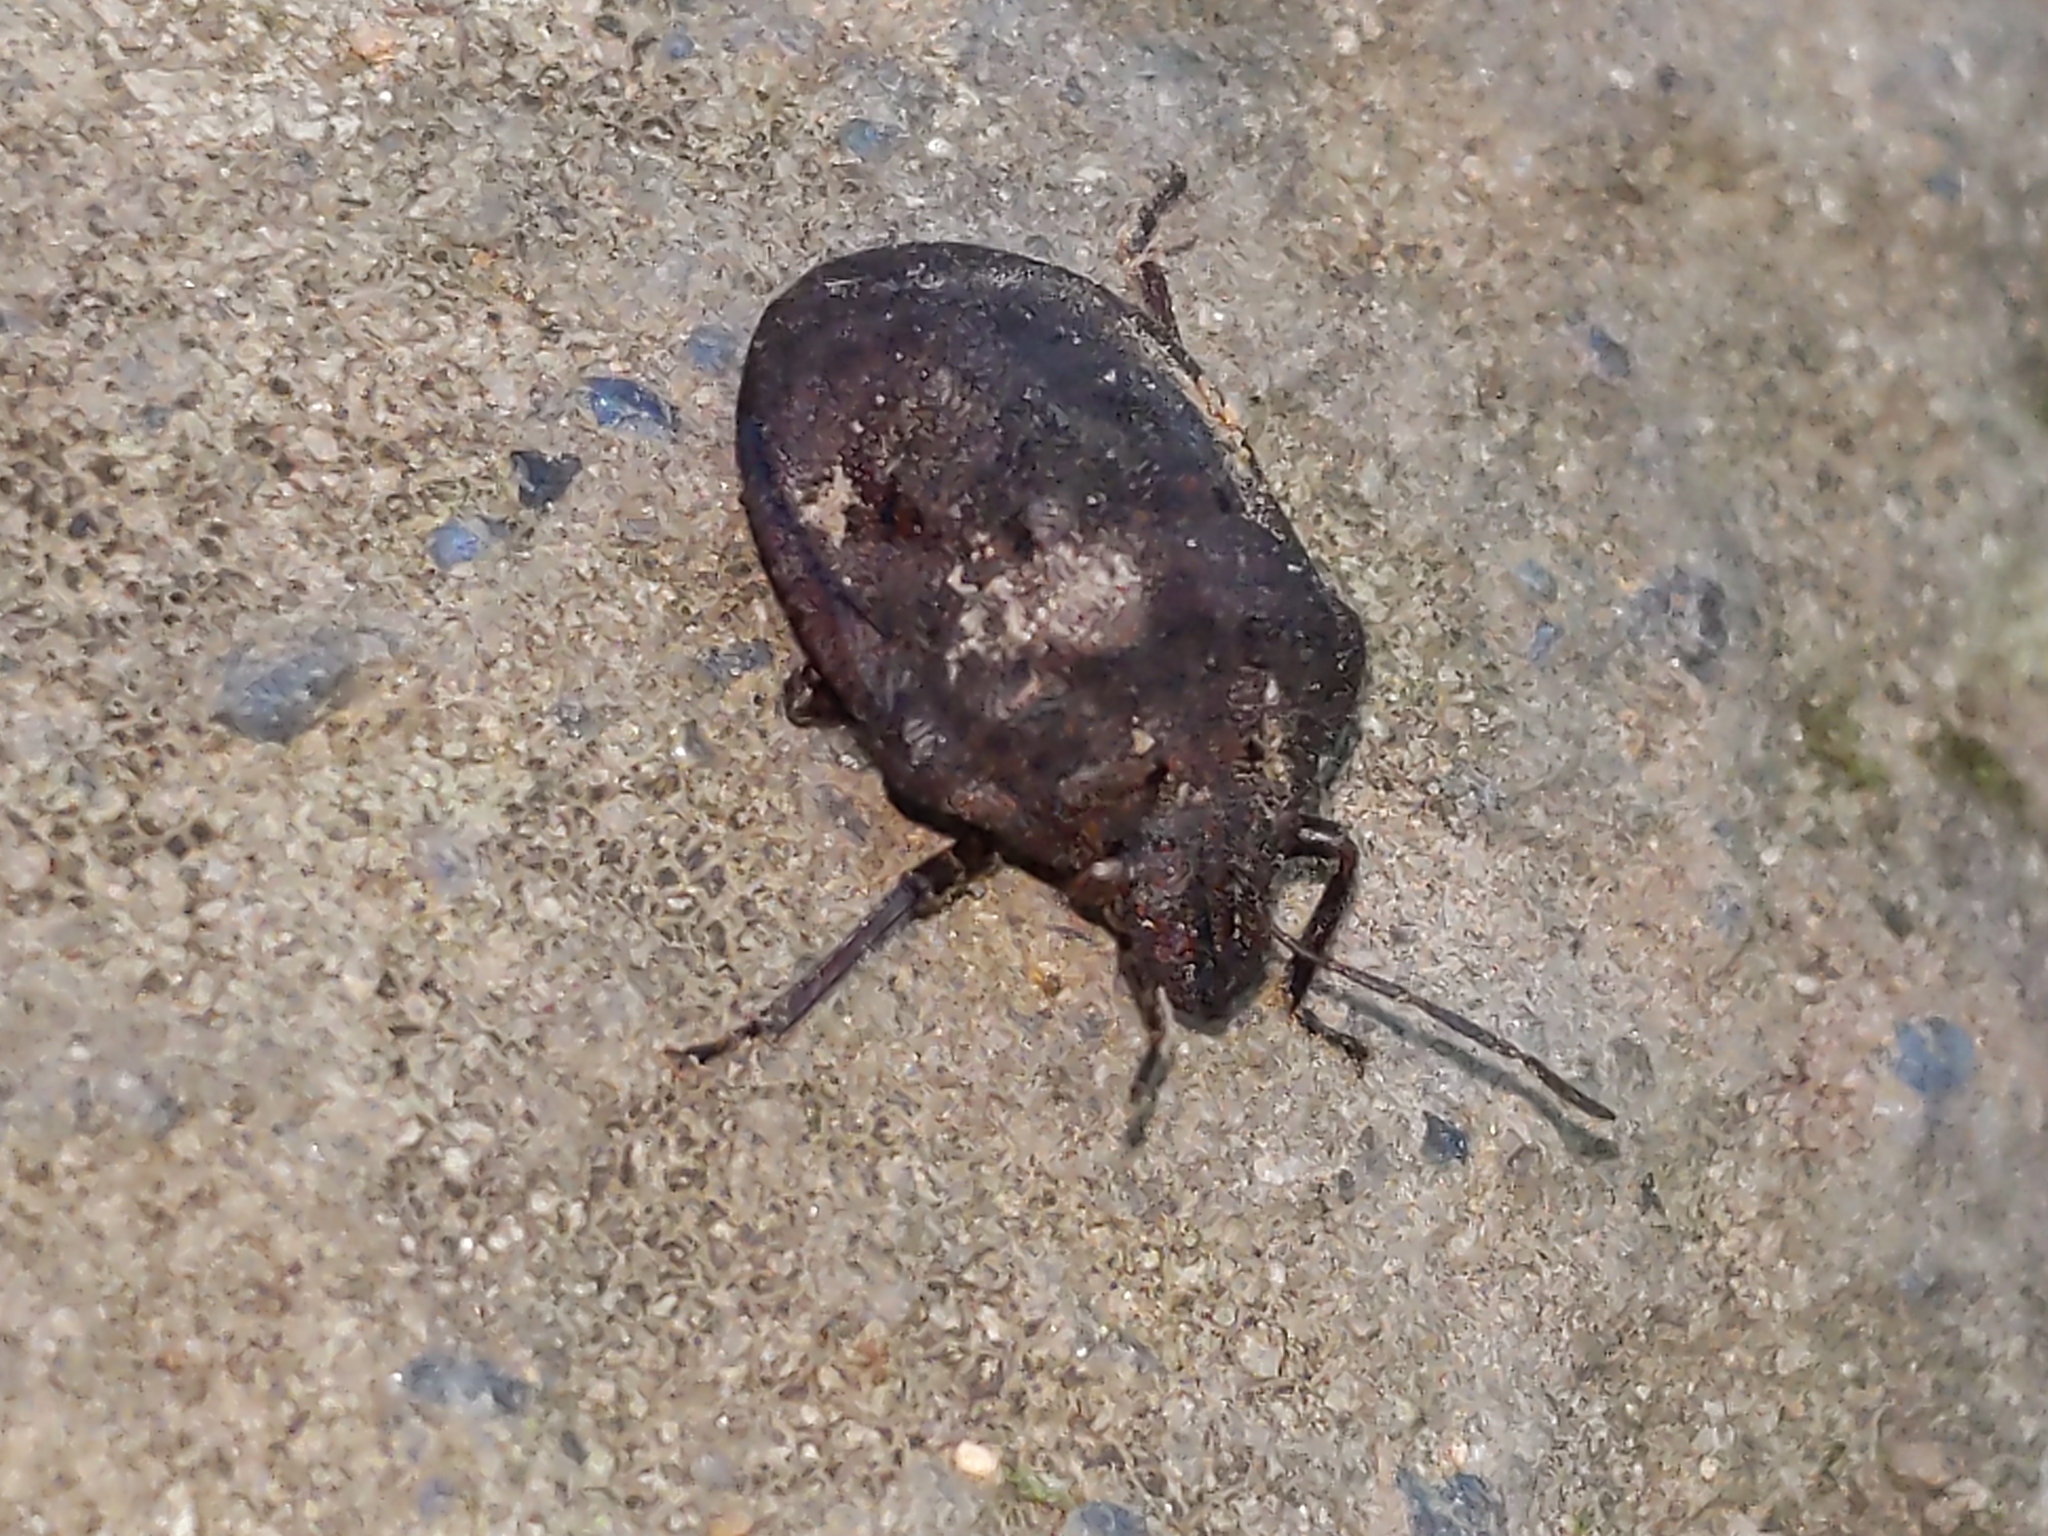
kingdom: Animalia
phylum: Arthropoda
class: Insecta
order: Hemiptera
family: Scutelleridae
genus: Tetyra
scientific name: Tetyra bipunctata
